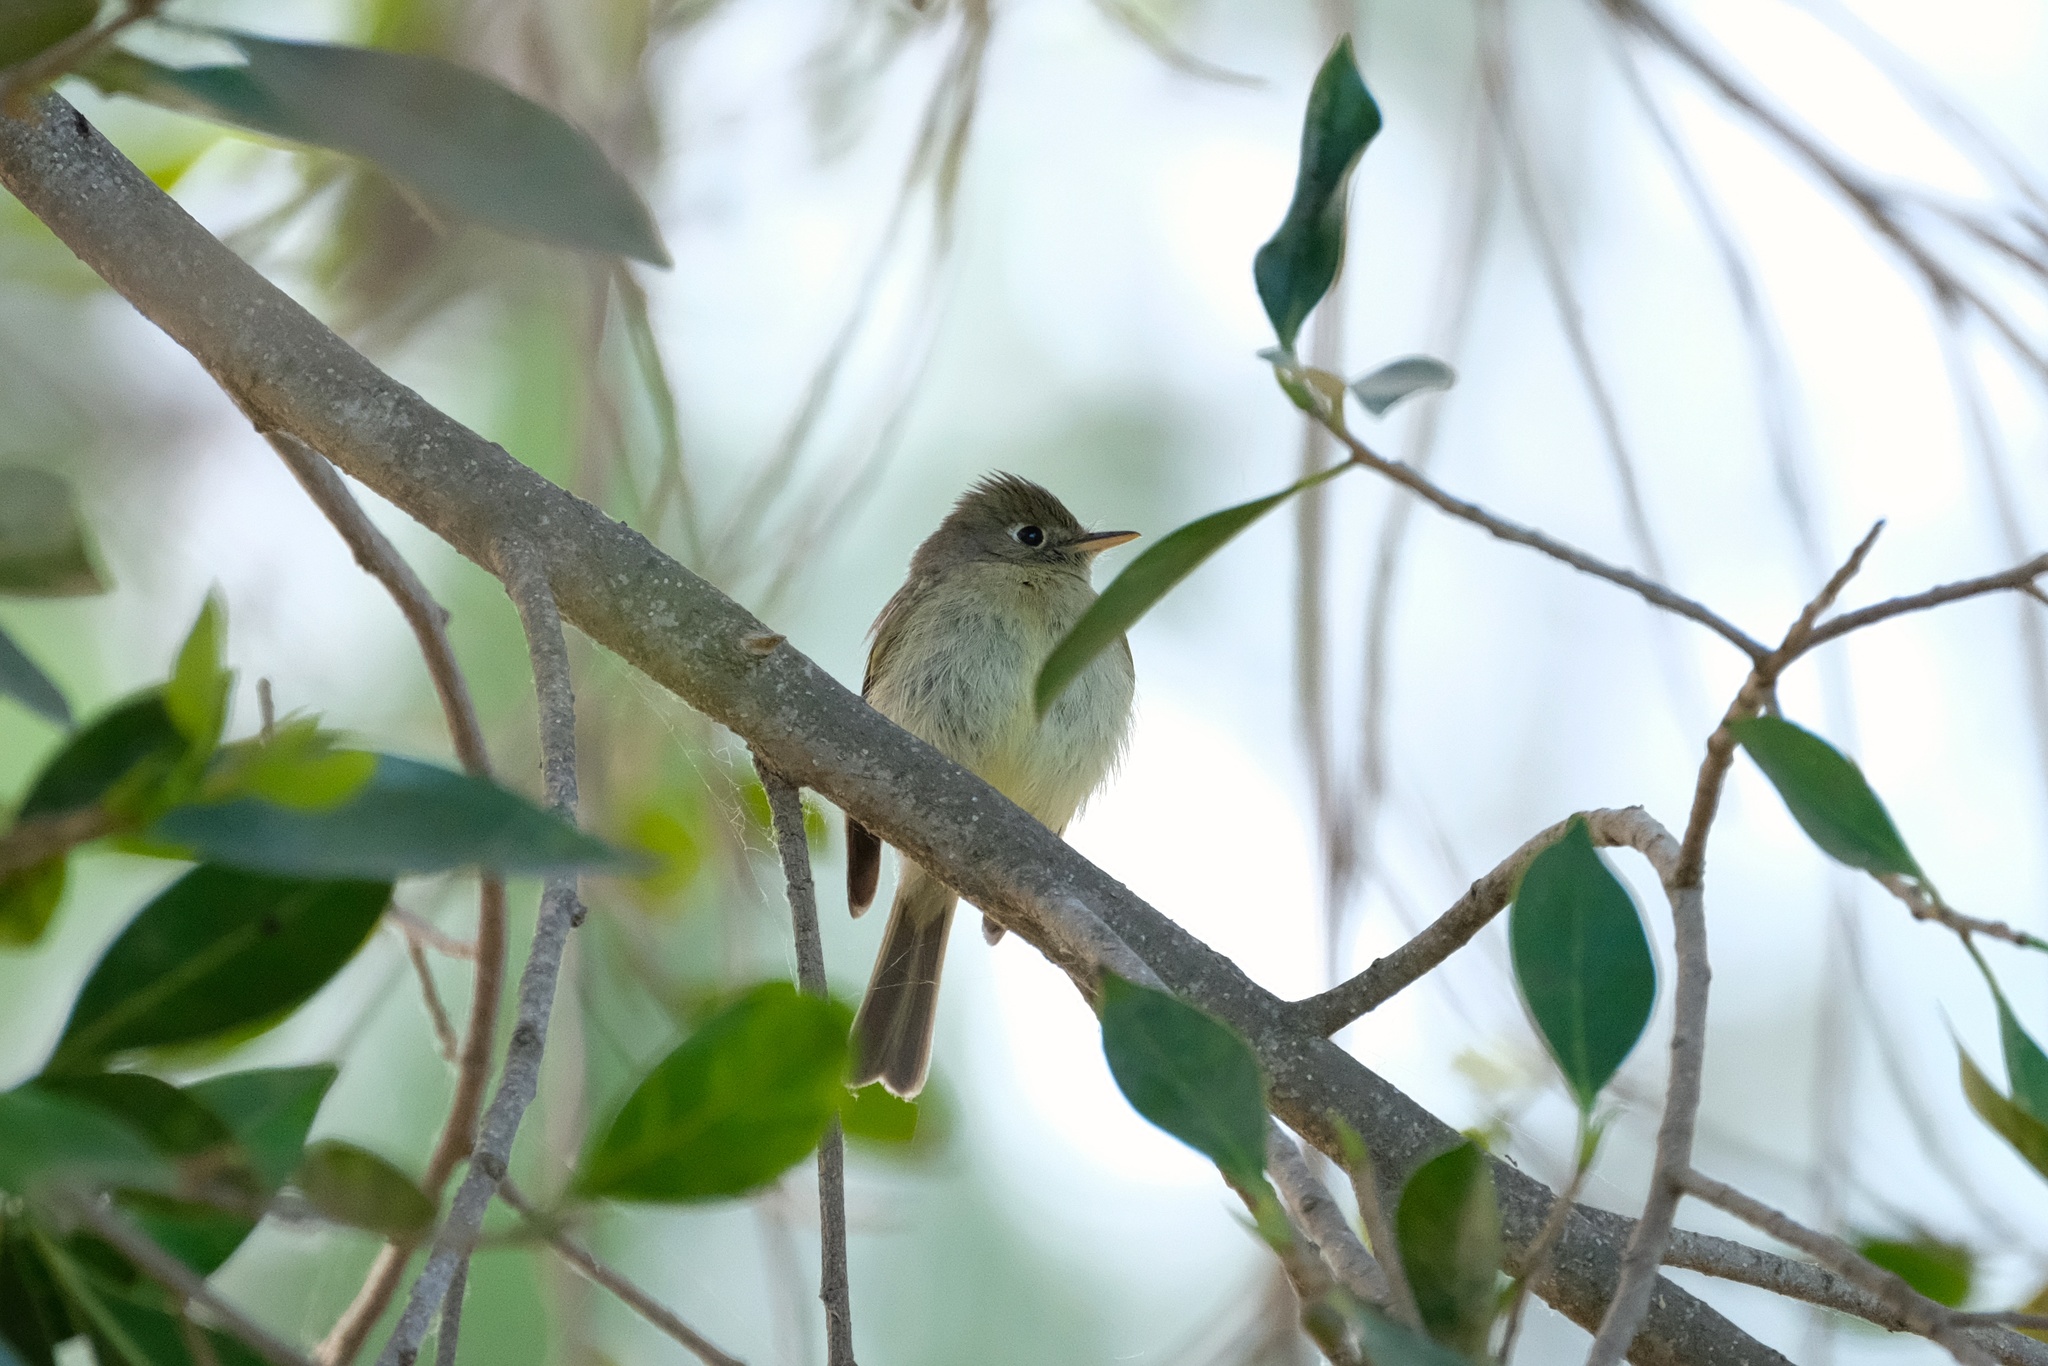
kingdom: Animalia
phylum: Chordata
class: Aves
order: Passeriformes
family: Tyrannidae
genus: Empidonax
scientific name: Empidonax difficilis
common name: Pacific-slope flycatcher
